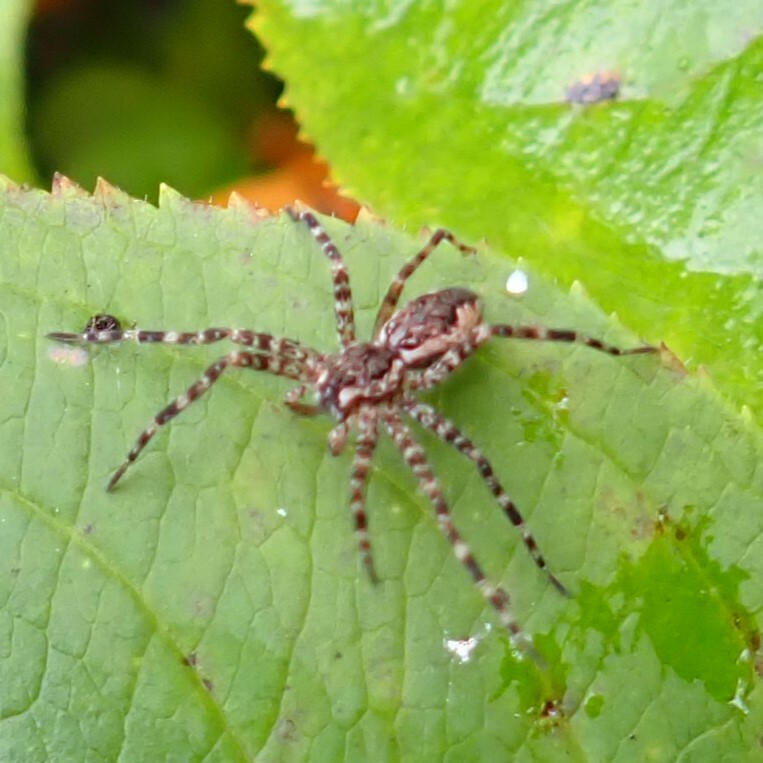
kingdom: Animalia
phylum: Arthropoda
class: Arachnida
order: Araneae
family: Pisauridae
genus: Dolomedes
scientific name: Dolomedes tenebrosus
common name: Dark fishing spider
